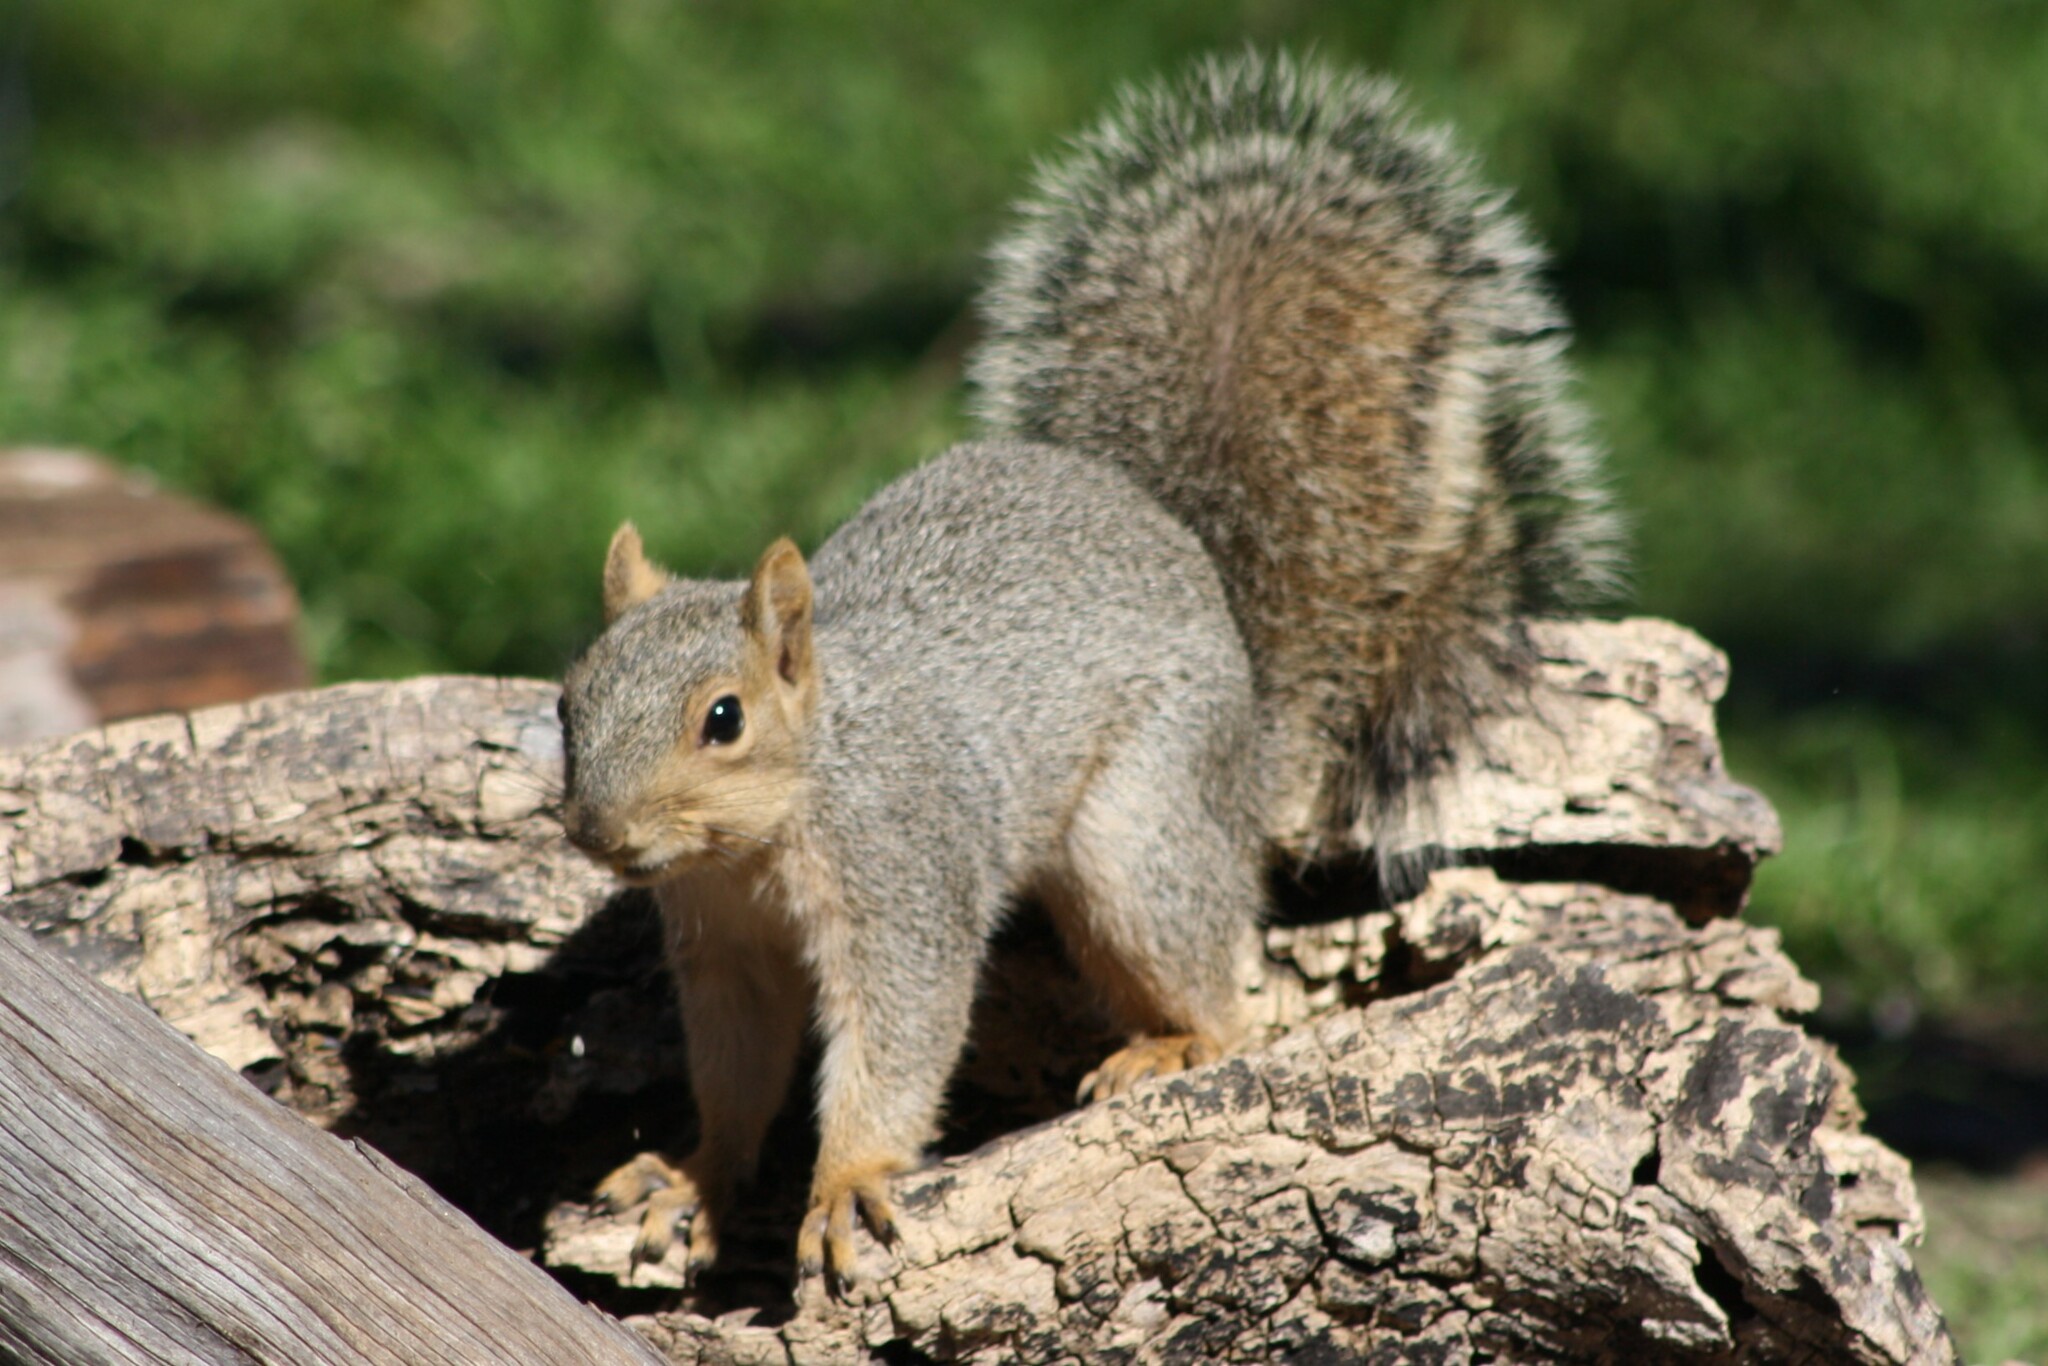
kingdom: Animalia
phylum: Chordata
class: Mammalia
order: Rodentia
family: Sciuridae
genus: Sciurus
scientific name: Sciurus niger
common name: Fox squirrel
